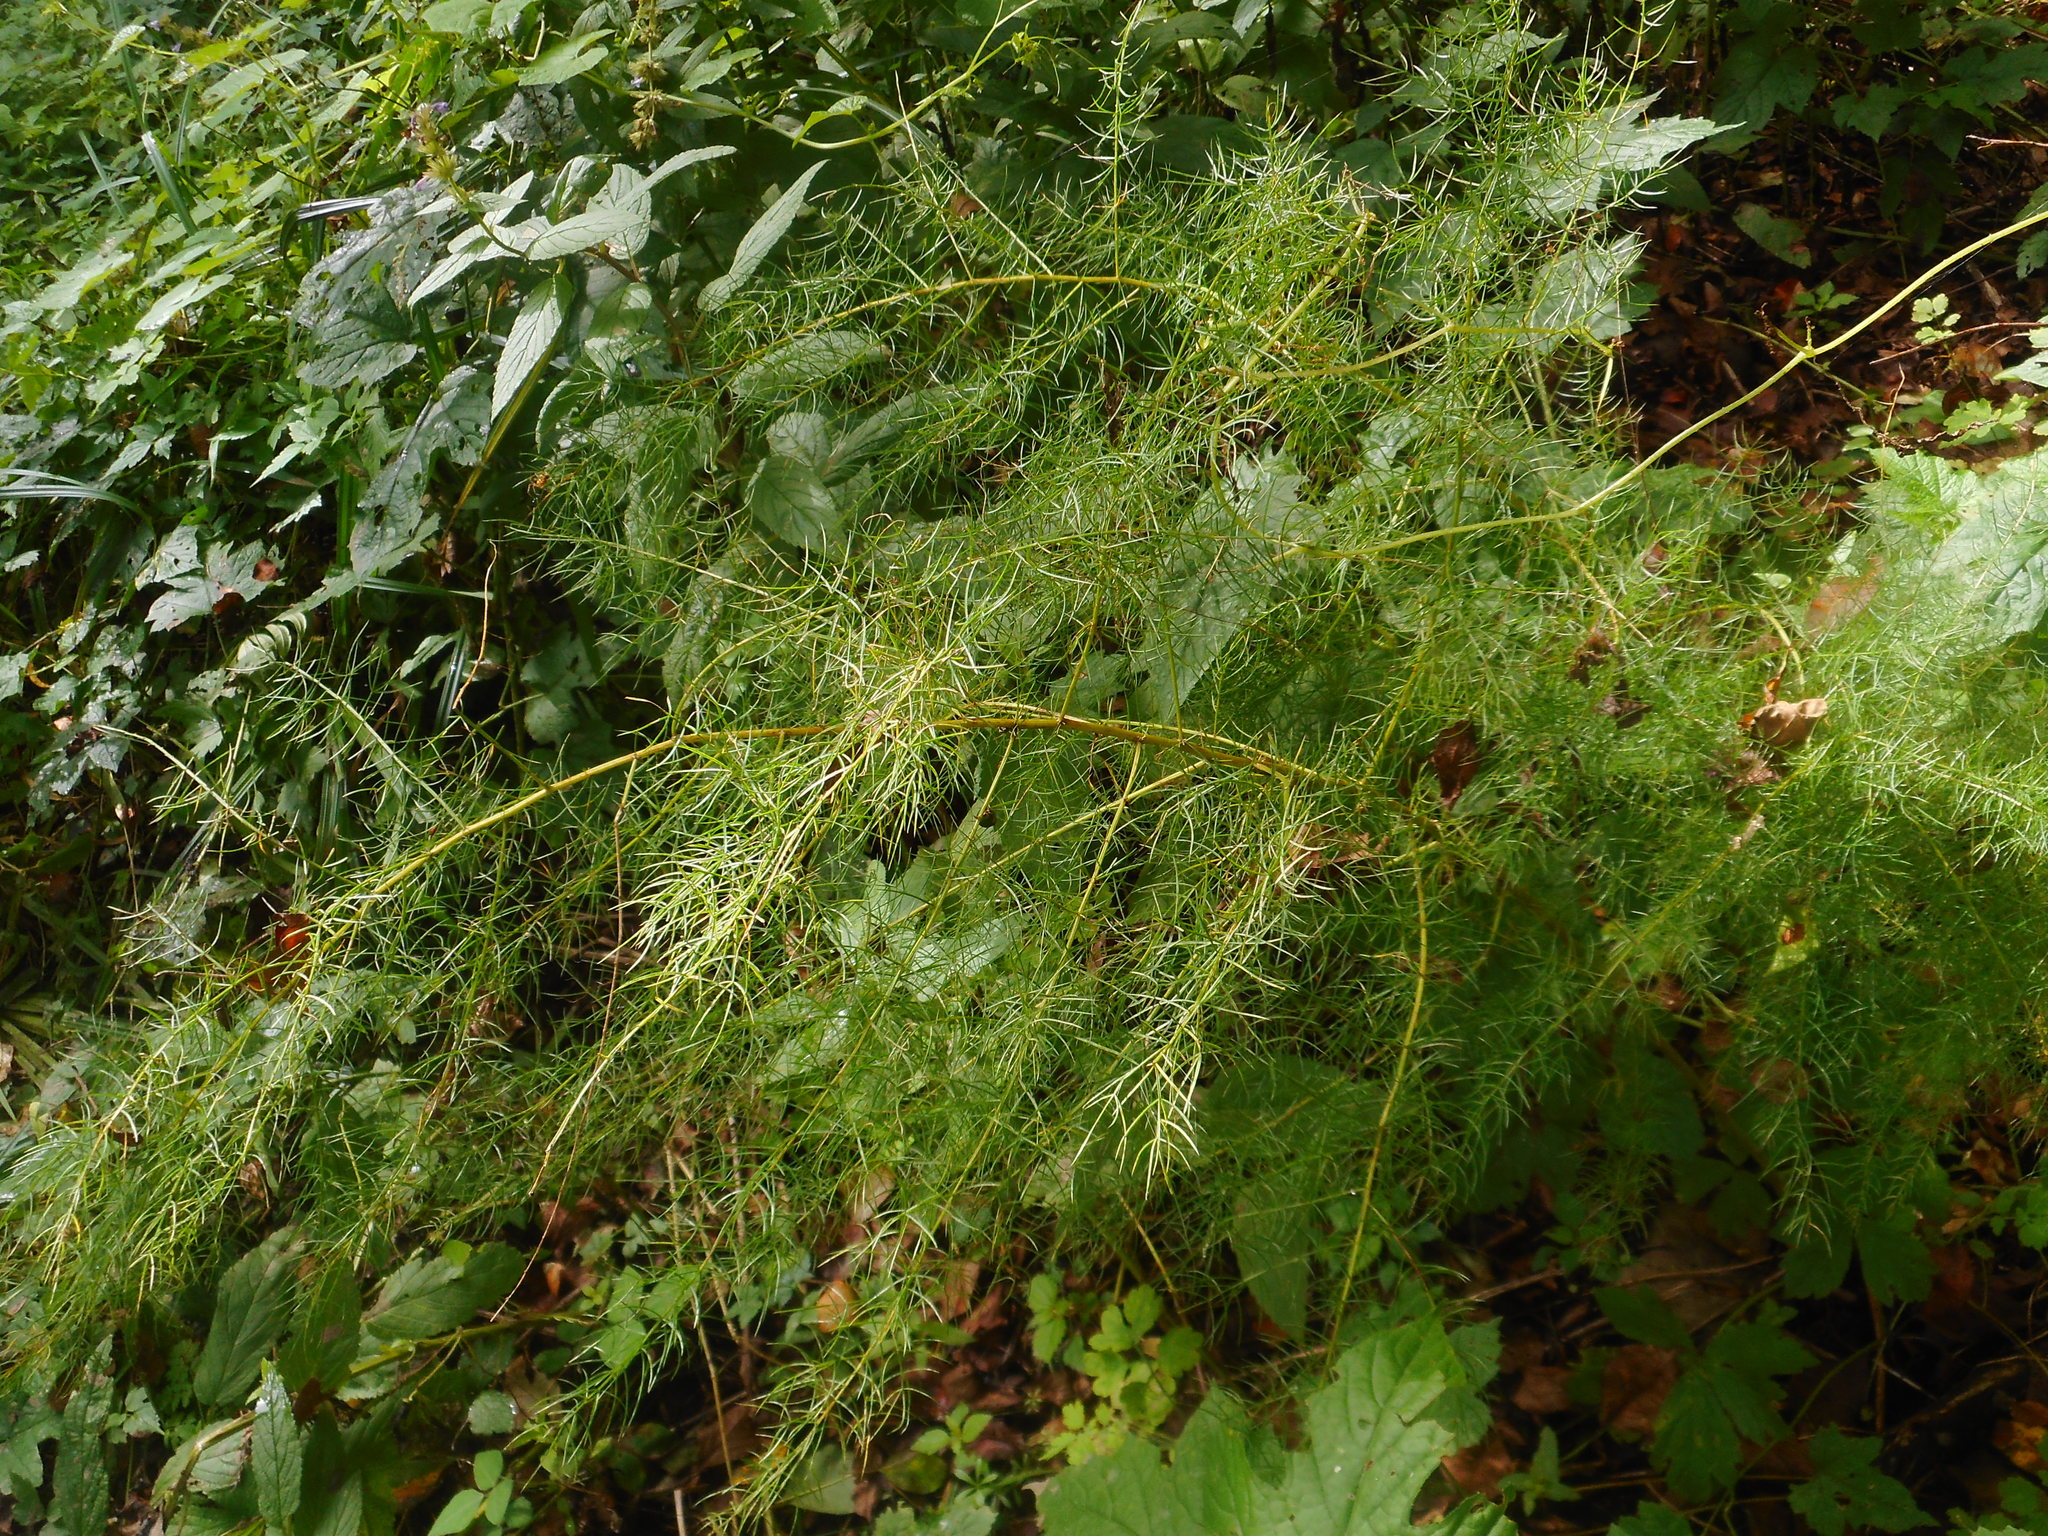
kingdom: Plantae
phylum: Tracheophyta
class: Liliopsida
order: Asparagales
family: Asparagaceae
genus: Asparagus
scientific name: Asparagus schoberioides
